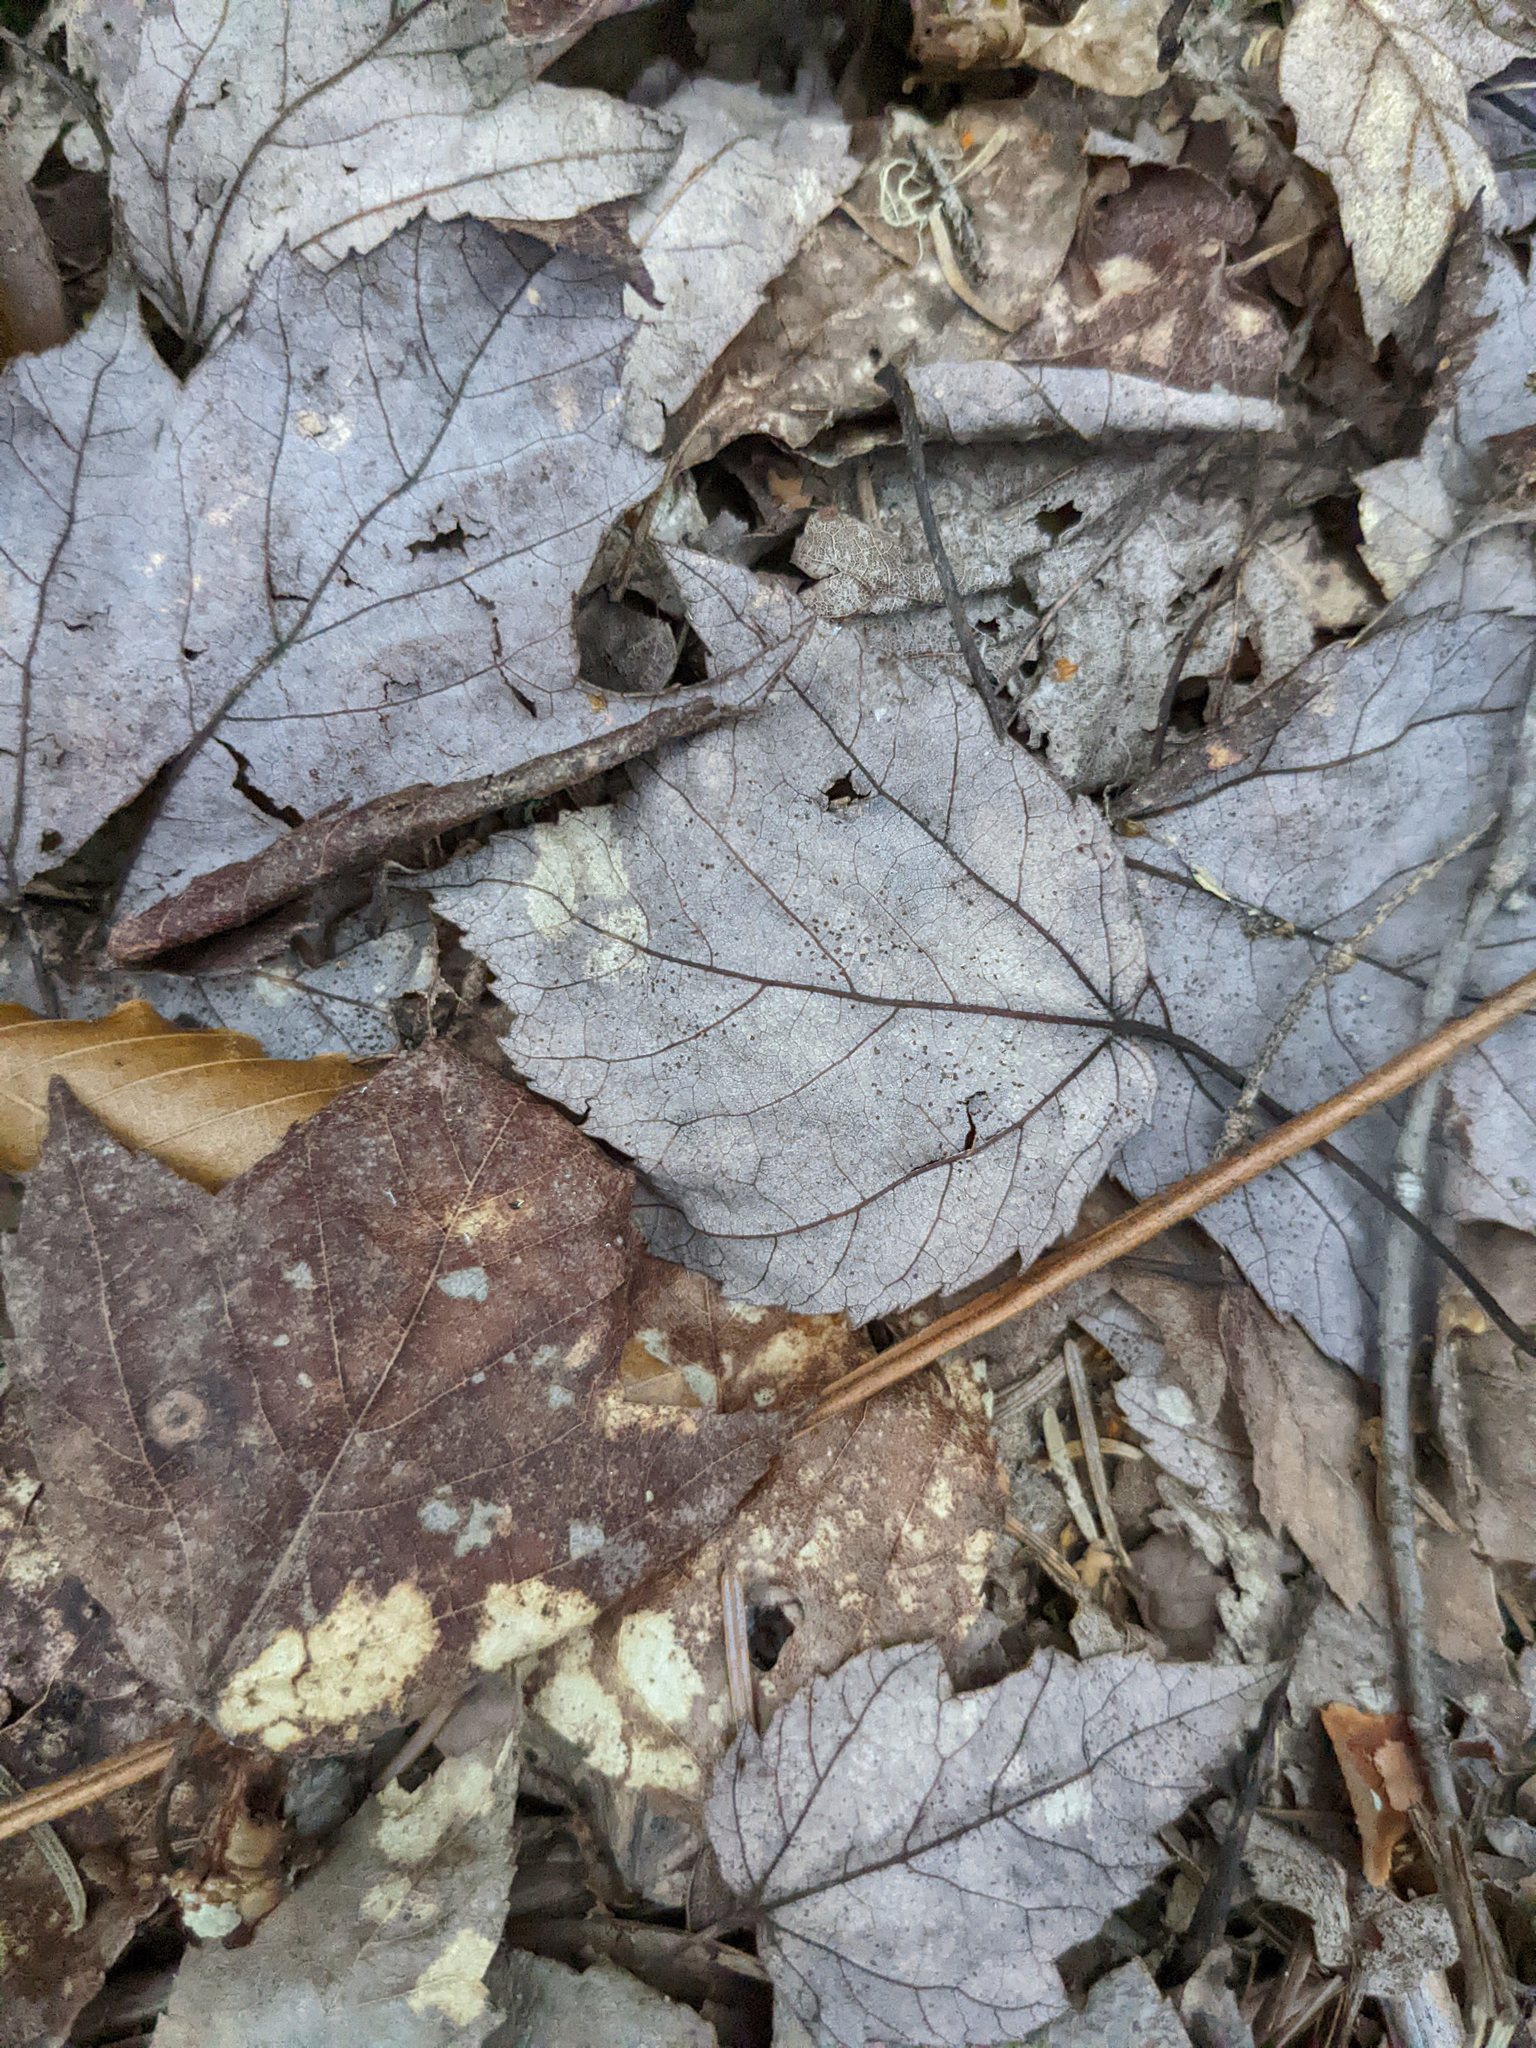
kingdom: Plantae
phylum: Tracheophyta
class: Magnoliopsida
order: Sapindales
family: Sapindaceae
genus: Acer
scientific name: Acer rubrum
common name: Red maple
